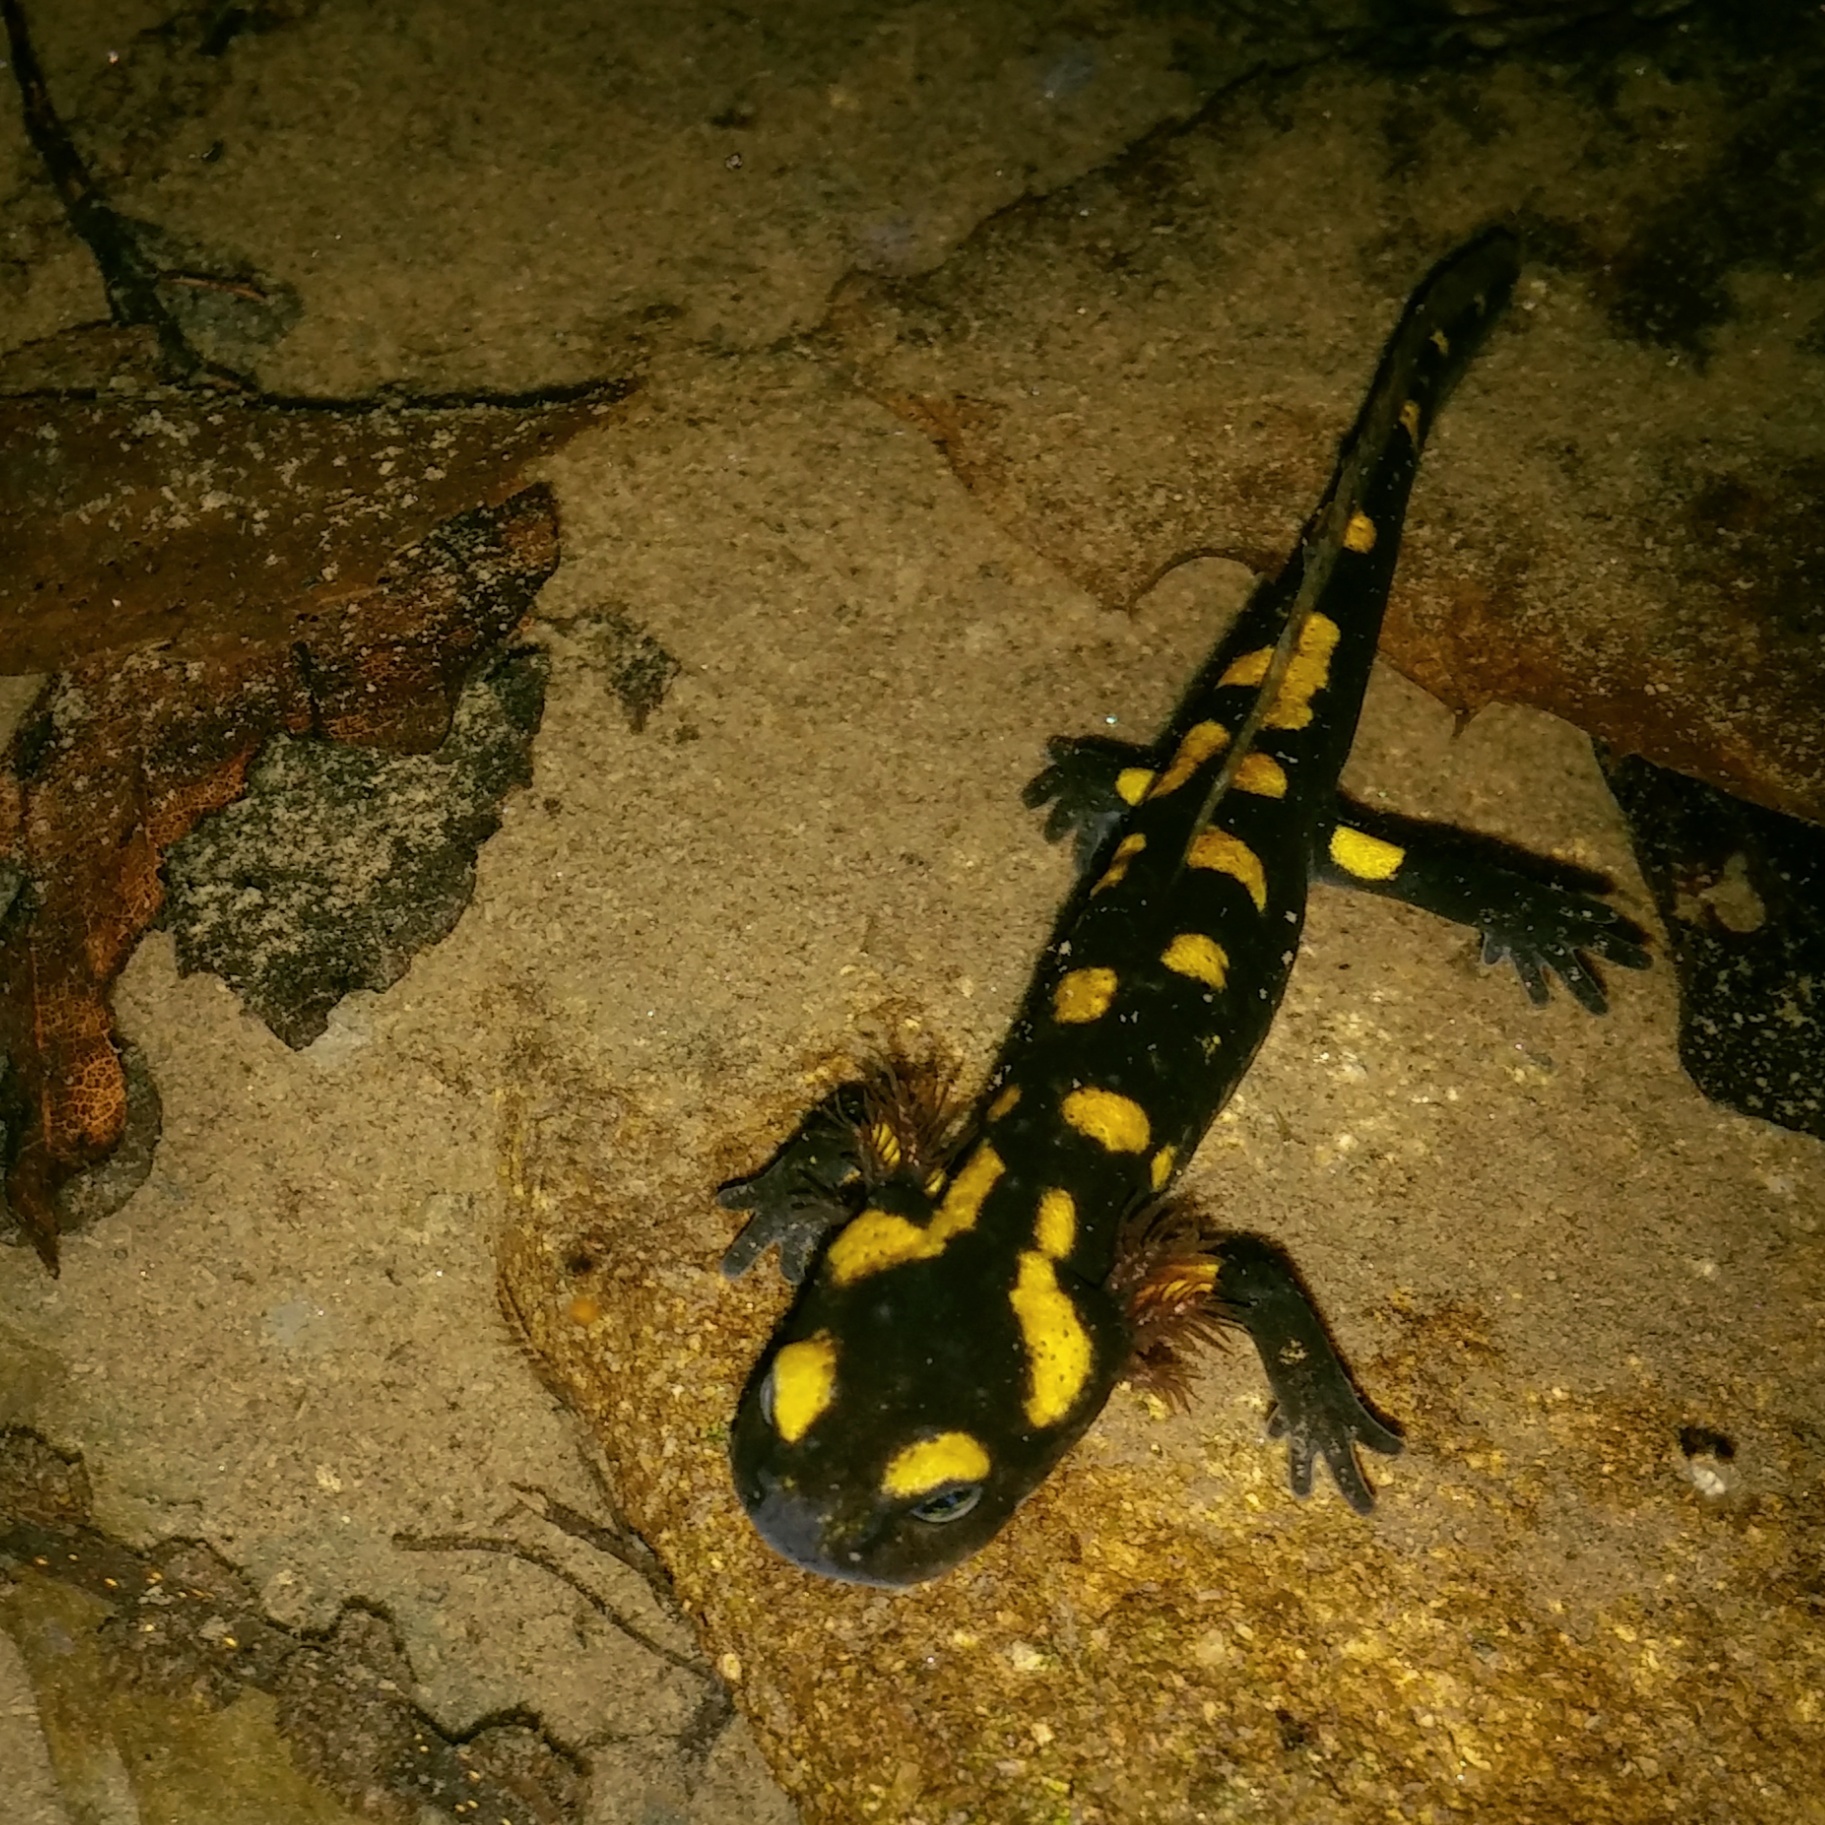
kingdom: Animalia
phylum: Chordata
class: Amphibia
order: Caudata
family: Salamandridae
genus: Salamandra
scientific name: Salamandra salamandra
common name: Fire salamander
